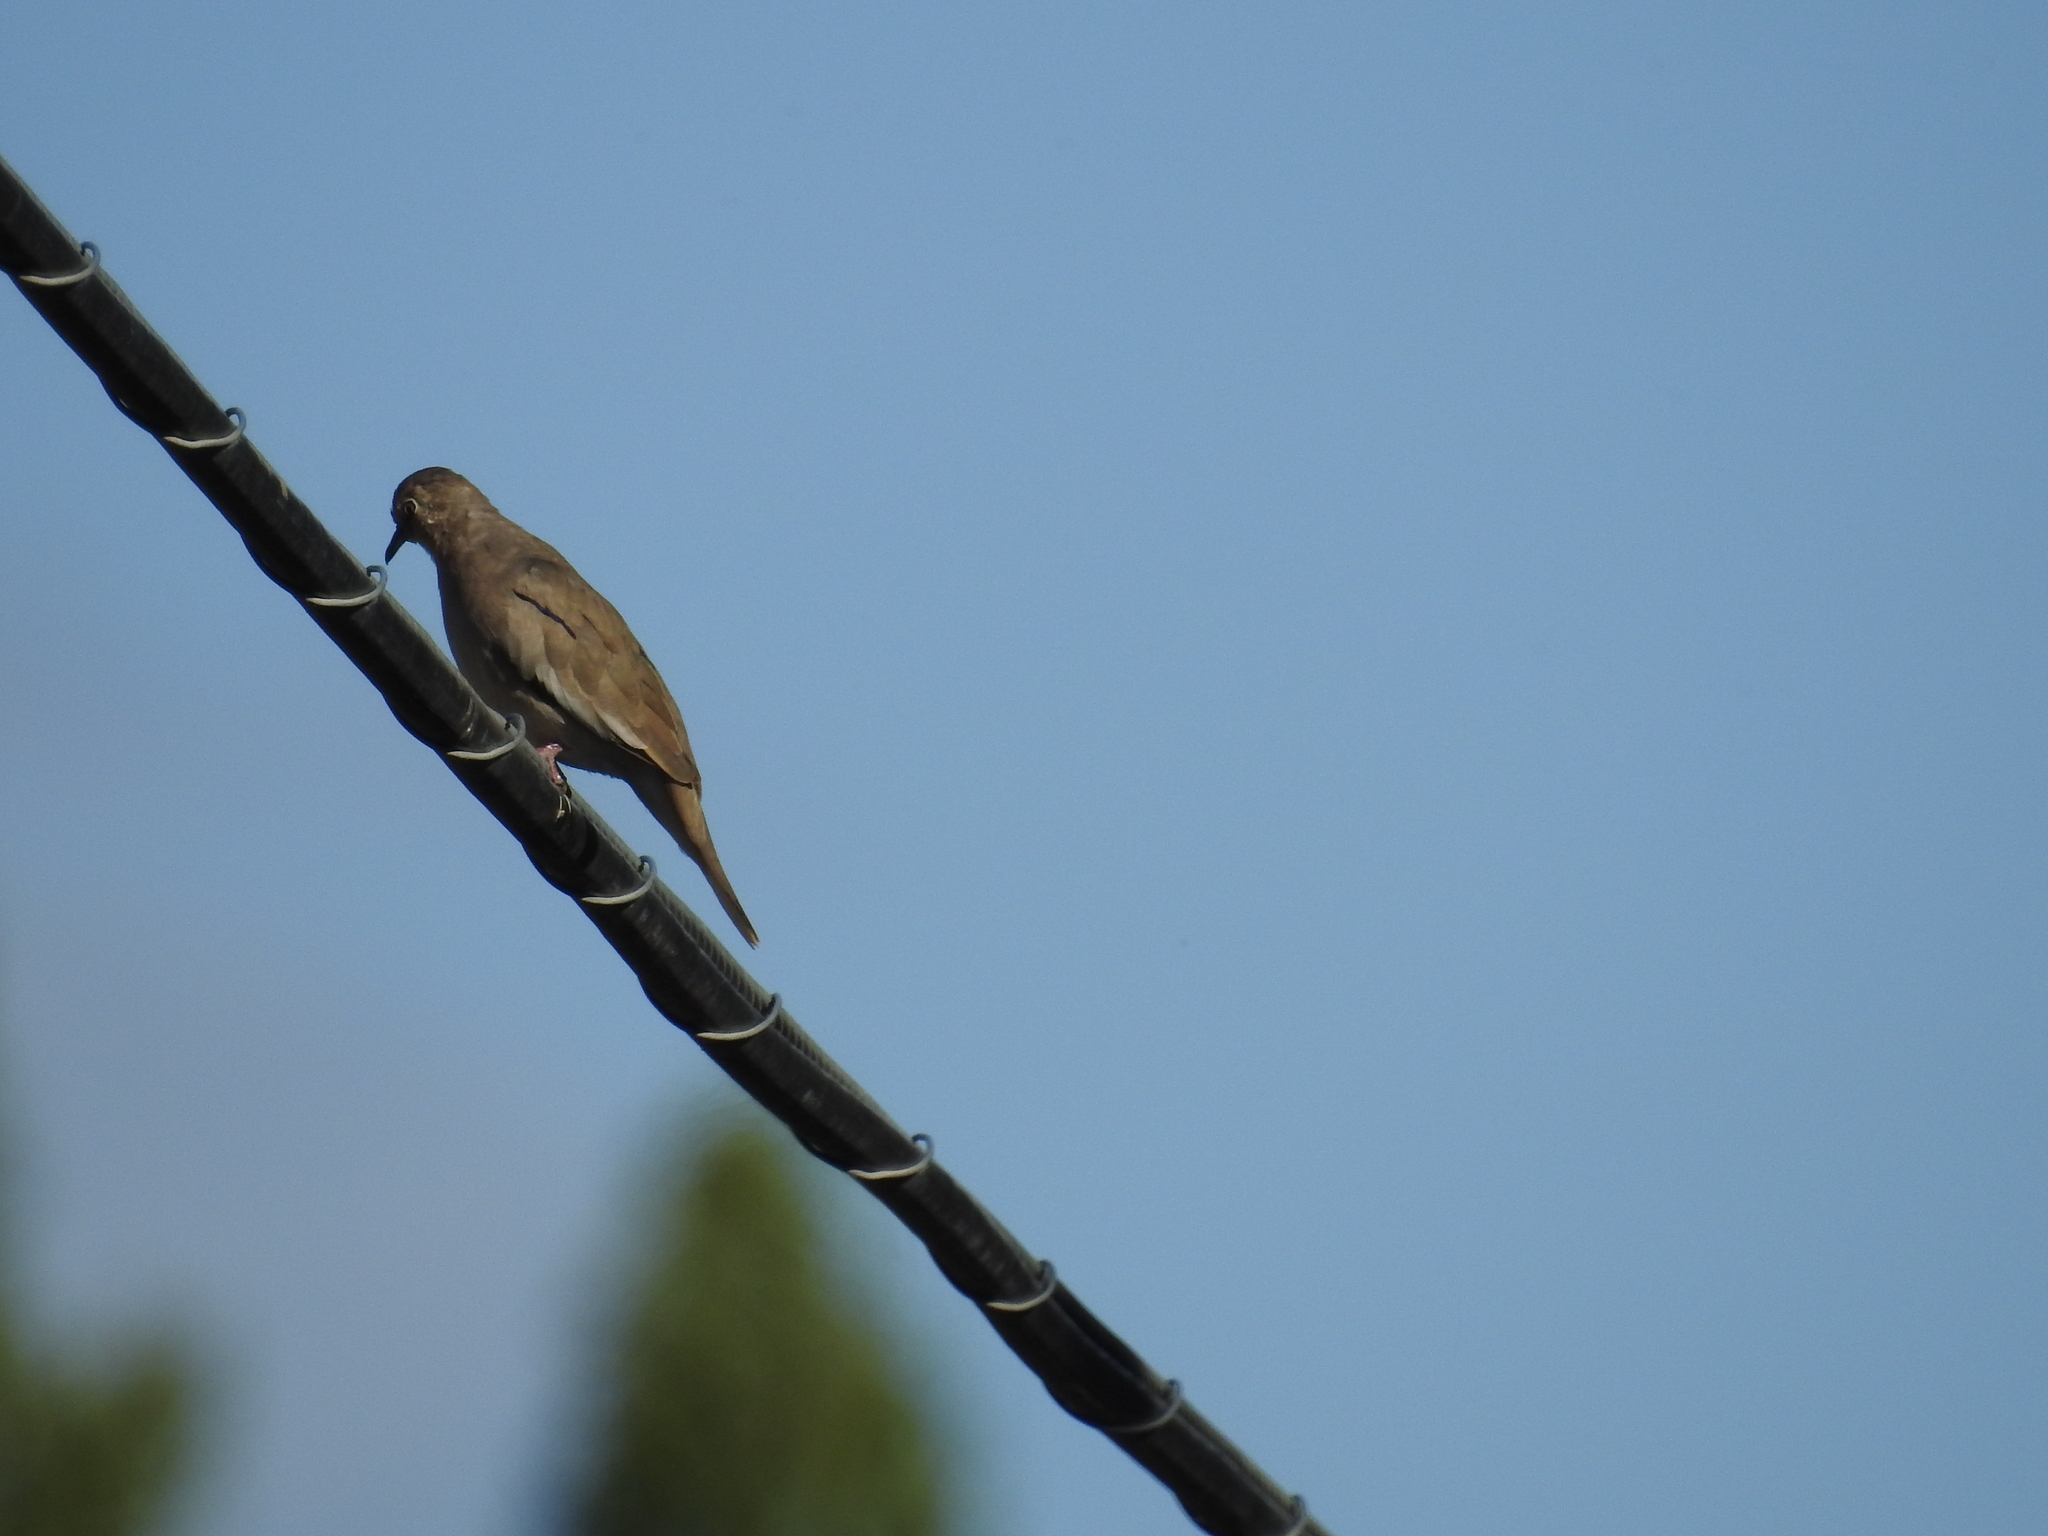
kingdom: Animalia
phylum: Chordata
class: Aves
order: Columbiformes
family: Columbidae
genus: Columbina
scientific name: Columbina picui
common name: Picui ground dove
